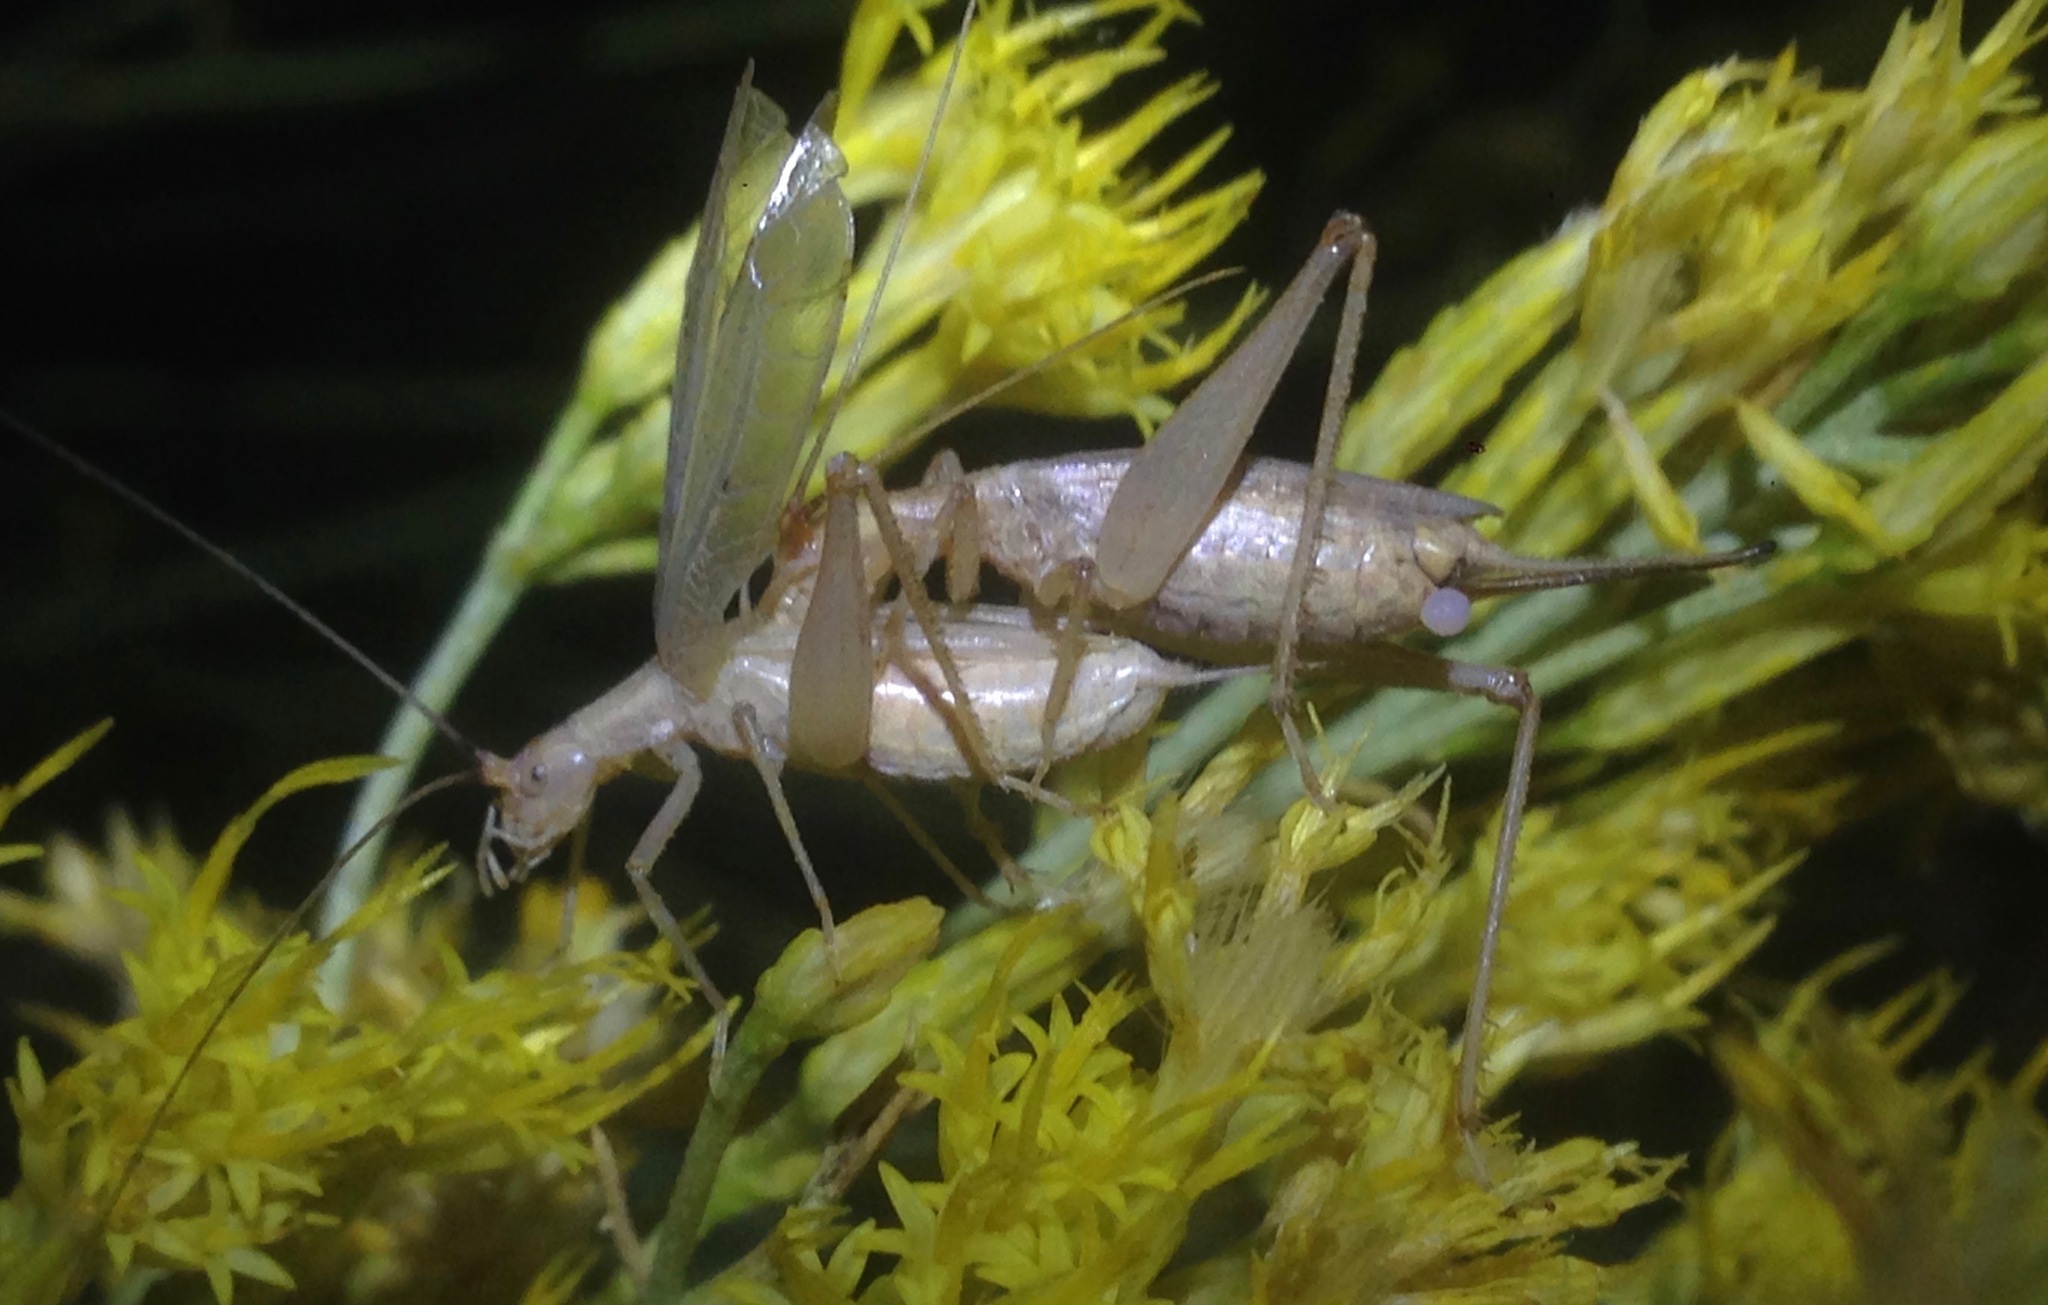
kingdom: Animalia
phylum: Arthropoda
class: Insecta
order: Orthoptera
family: Gryllidae
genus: Oecanthus
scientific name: Oecanthus californicus
